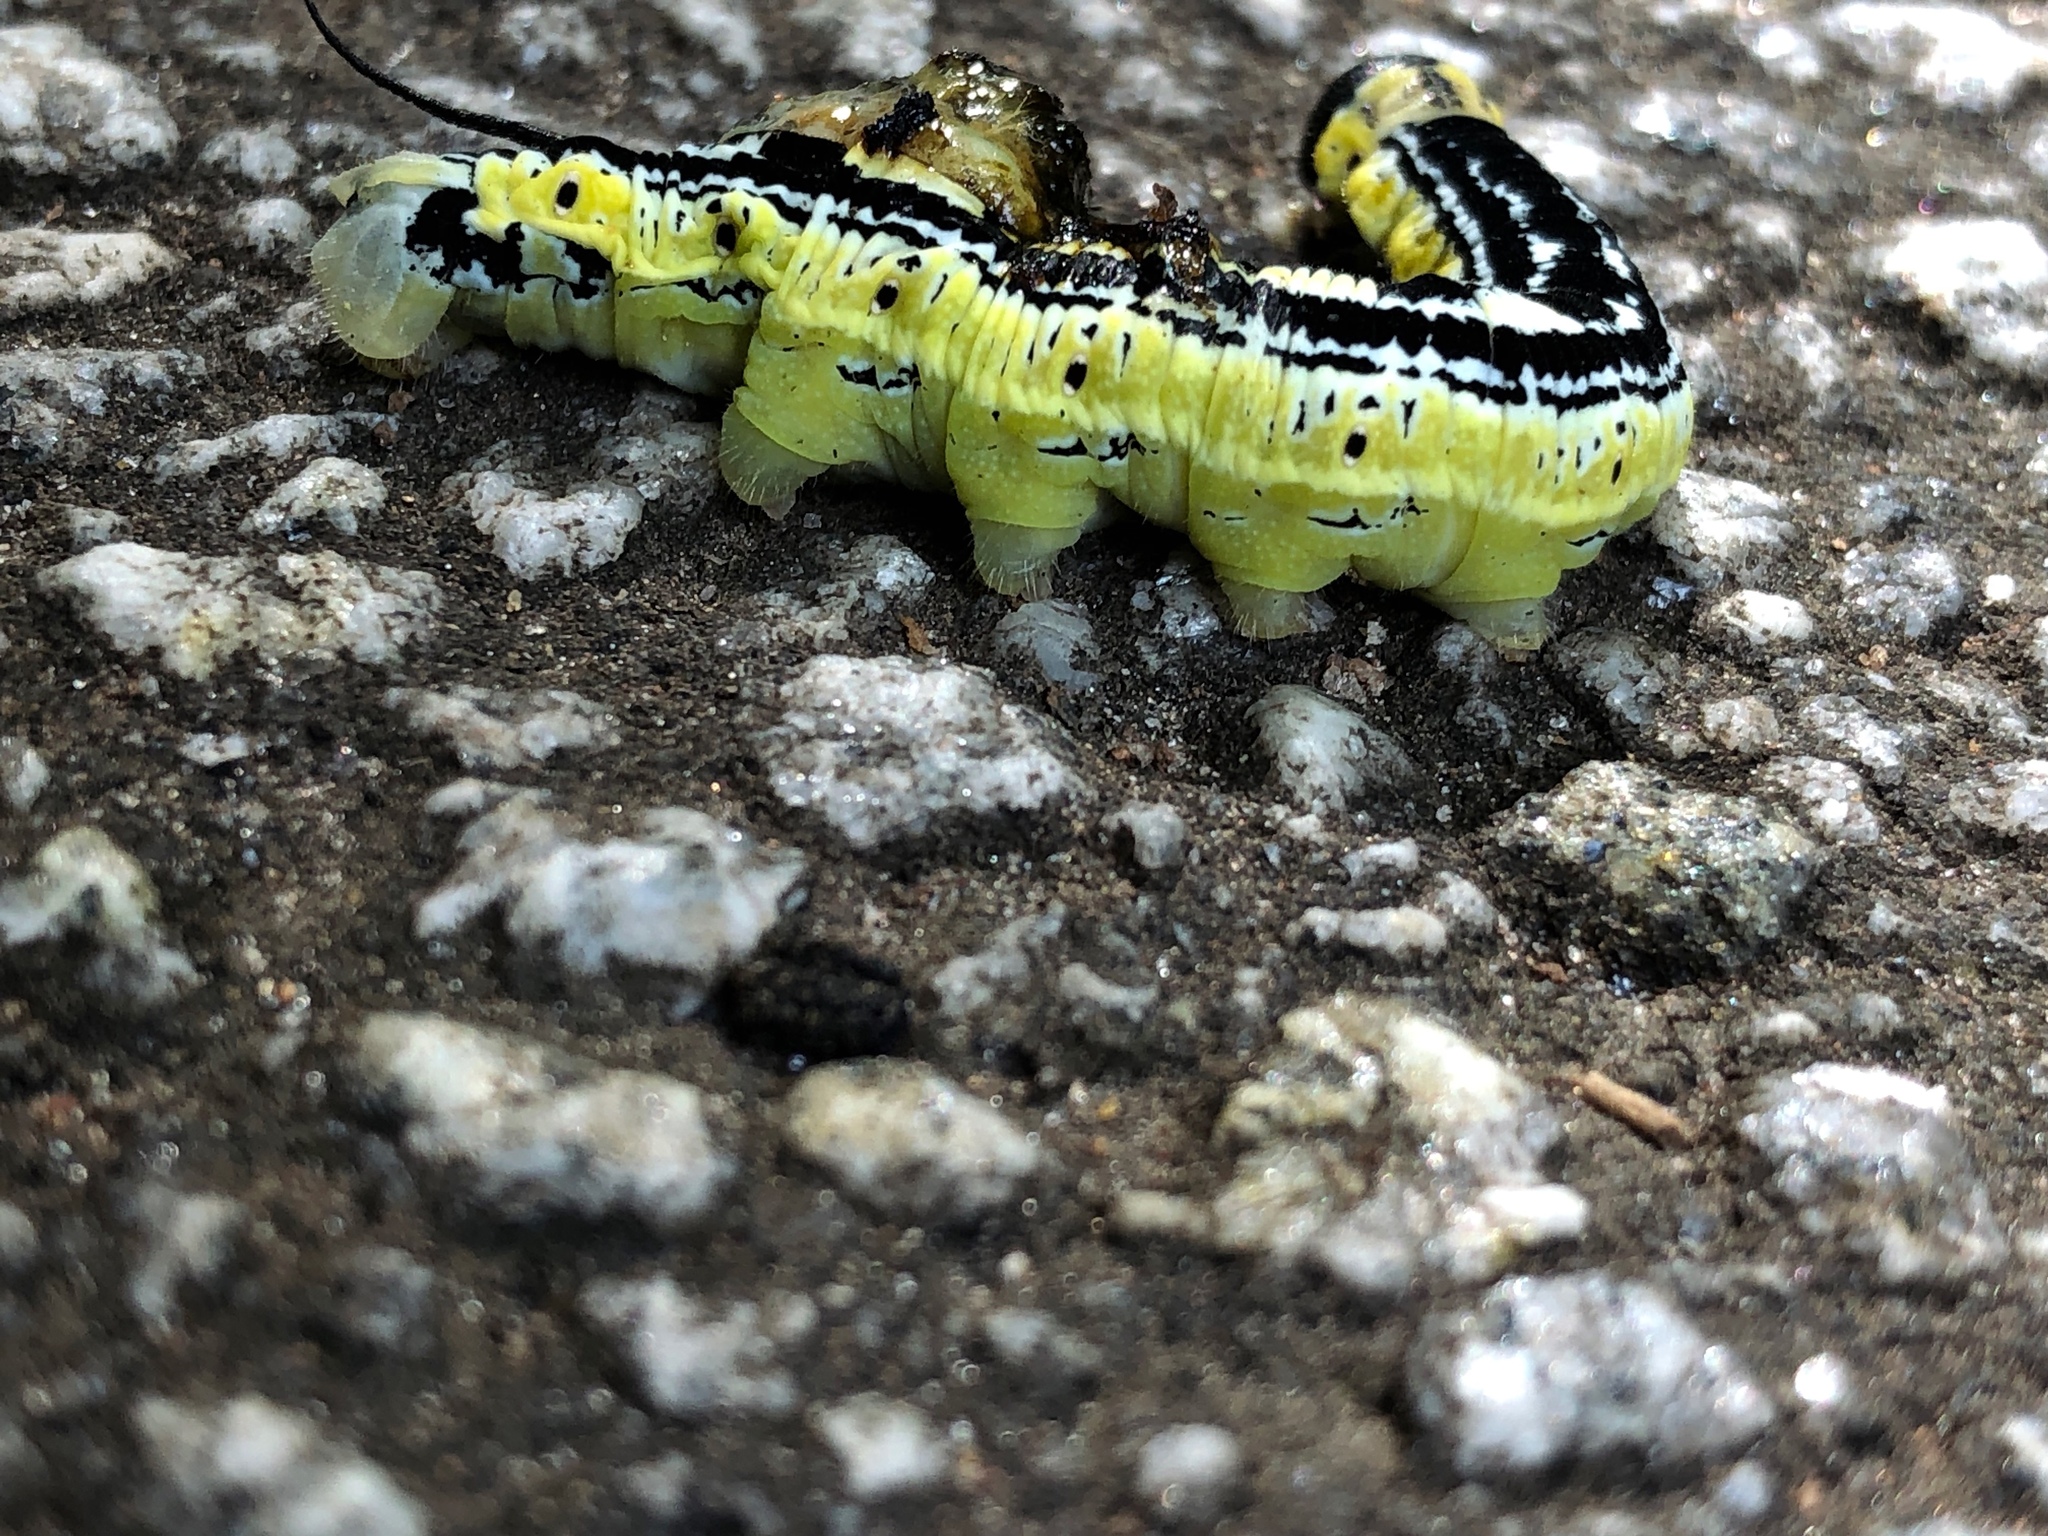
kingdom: Animalia
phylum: Arthropoda
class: Insecta
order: Lepidoptera
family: Sphingidae
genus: Ceratomia
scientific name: Ceratomia catalpae
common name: Catalpa hornworm
